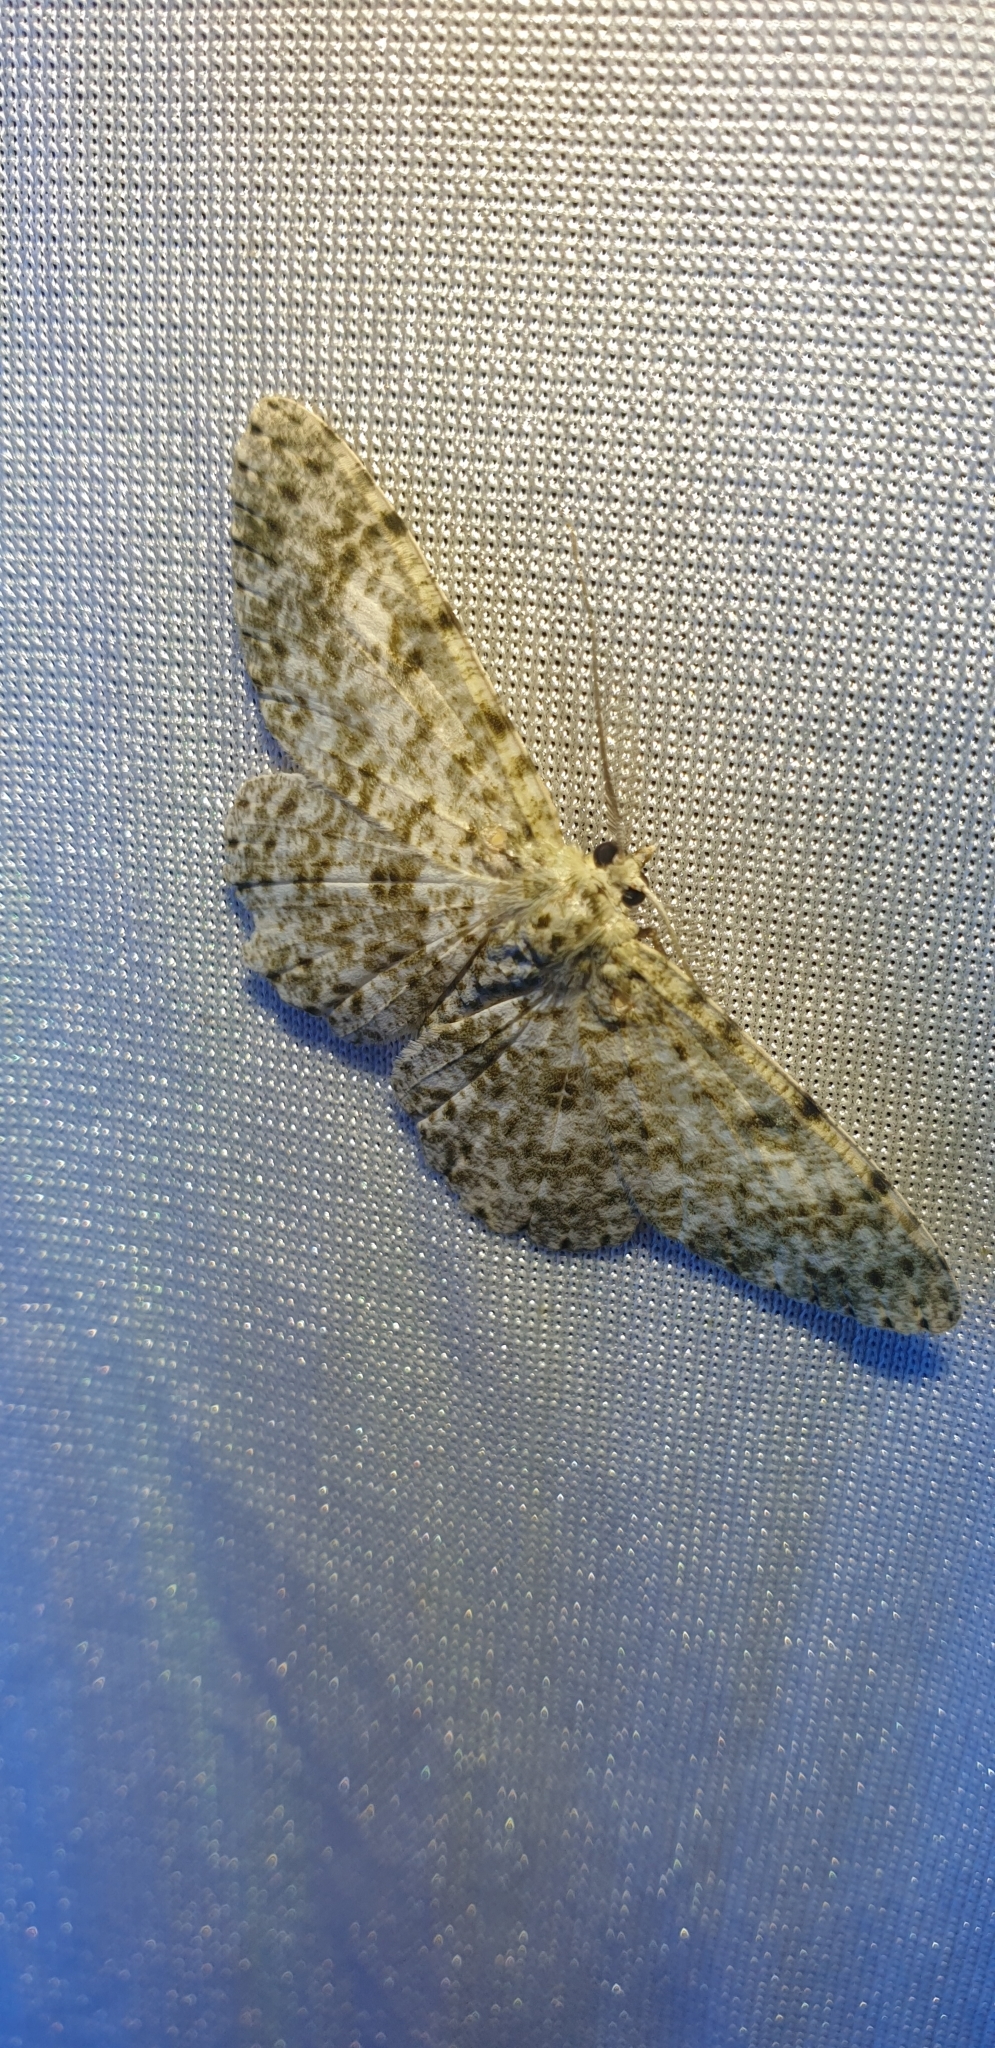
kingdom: Animalia
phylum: Arthropoda
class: Insecta
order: Lepidoptera
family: Geometridae
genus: Catoria
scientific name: Catoria camelaria
